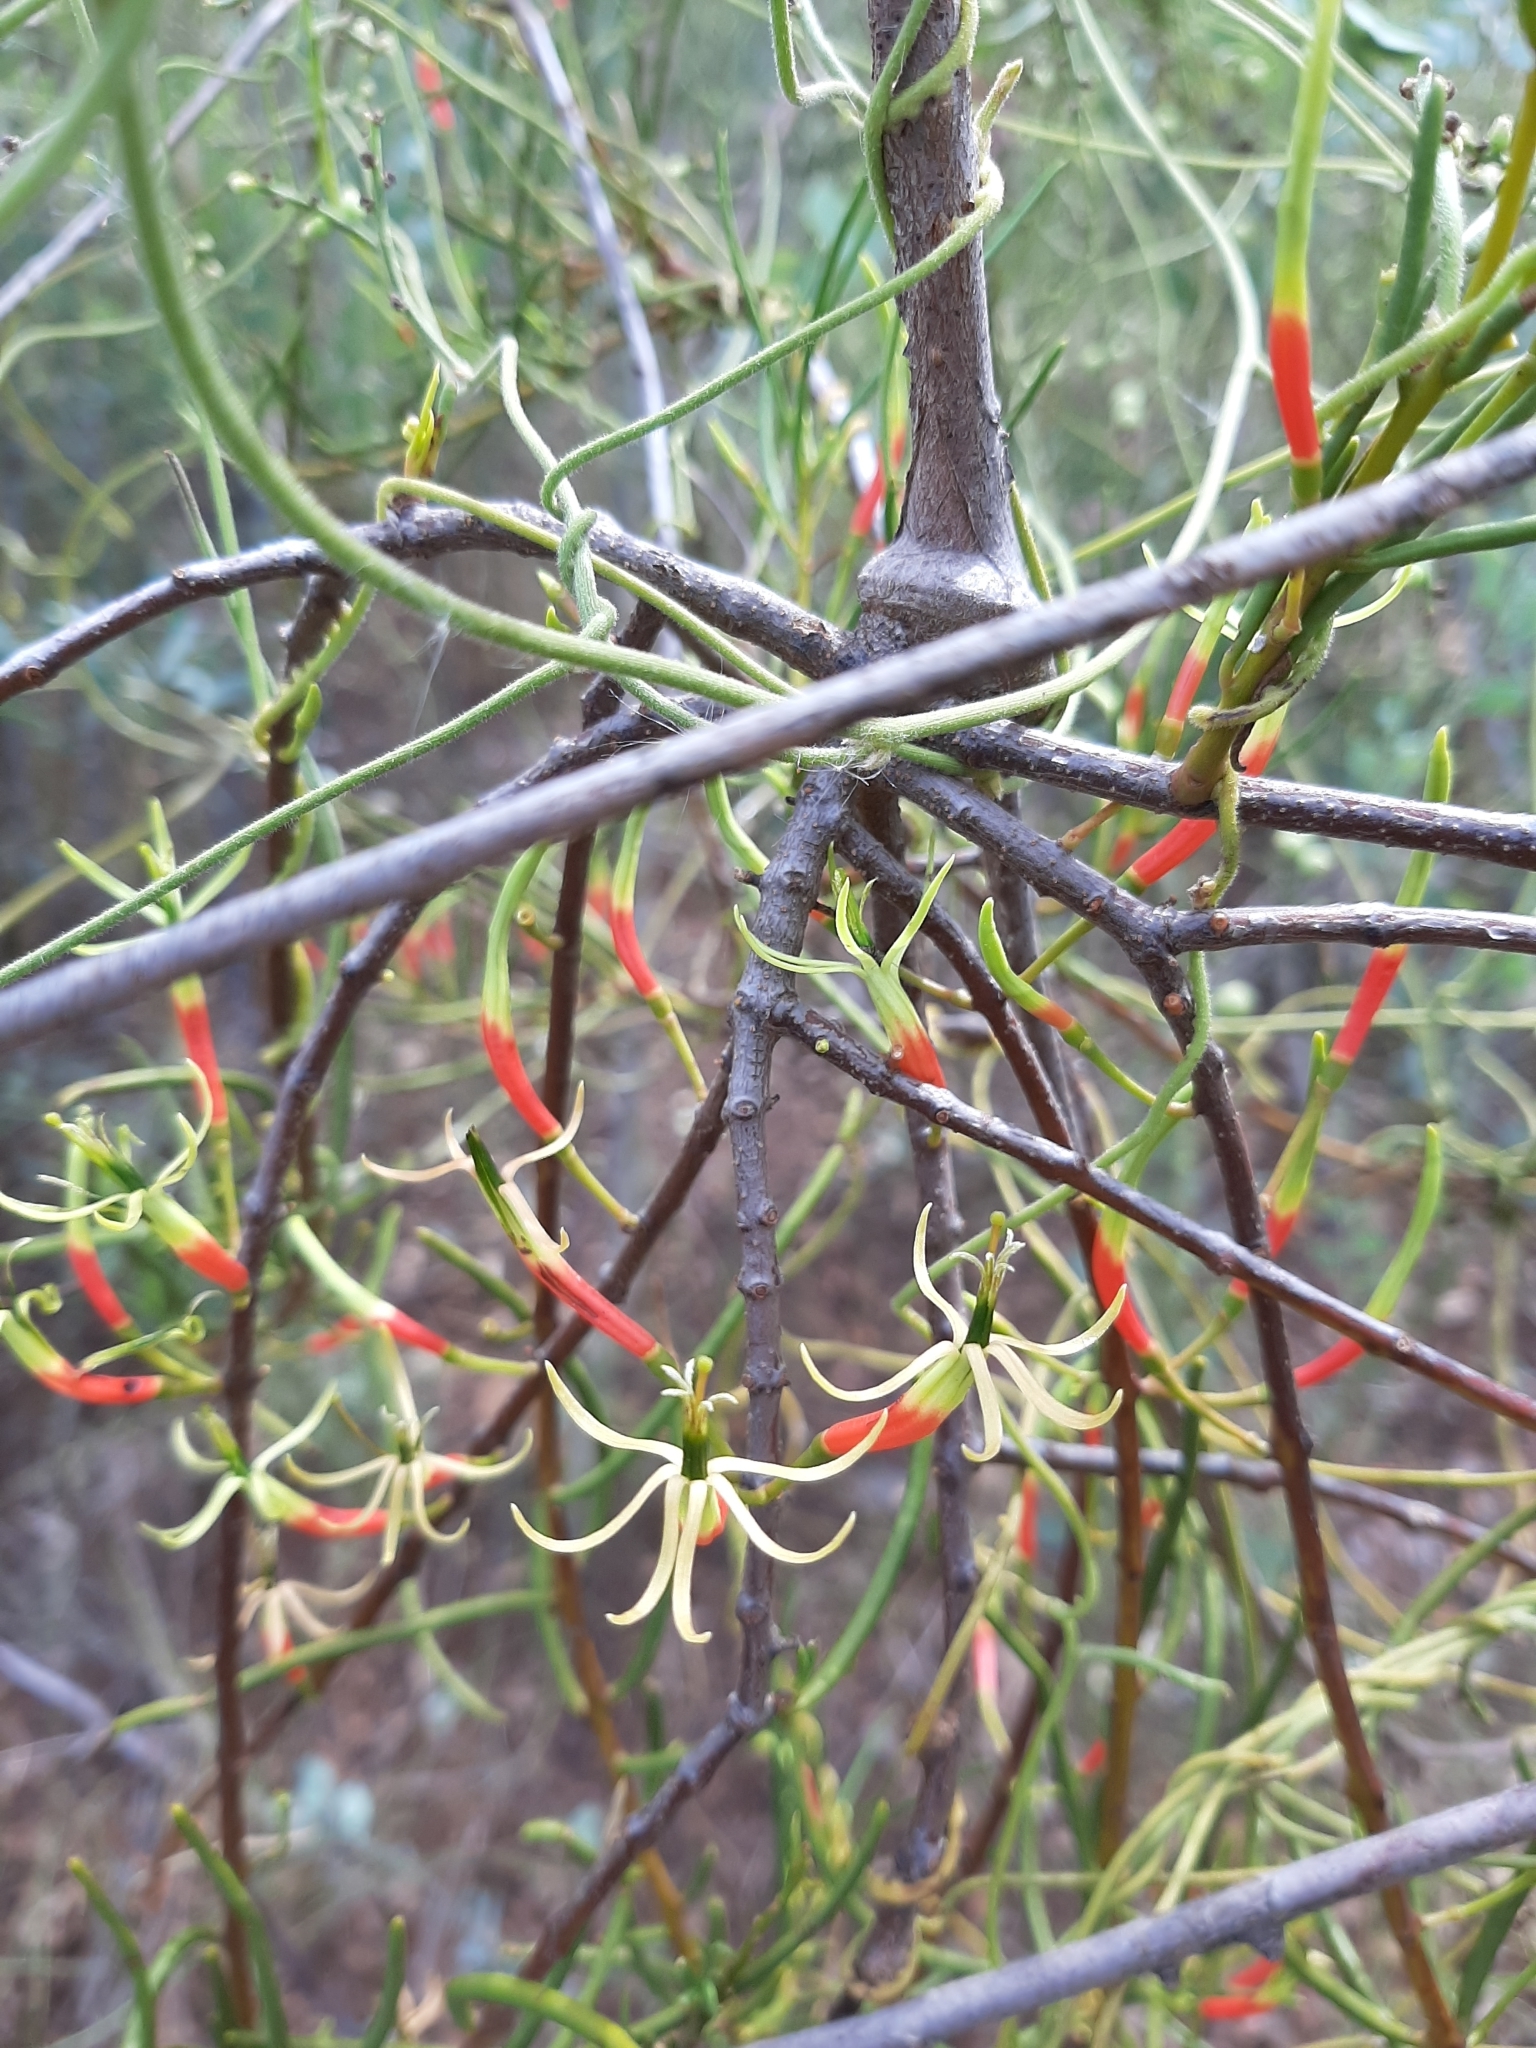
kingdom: Plantae
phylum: Tracheophyta
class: Magnoliopsida
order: Santalales
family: Loranthaceae
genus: Lysiana
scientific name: Lysiana casuarinae
